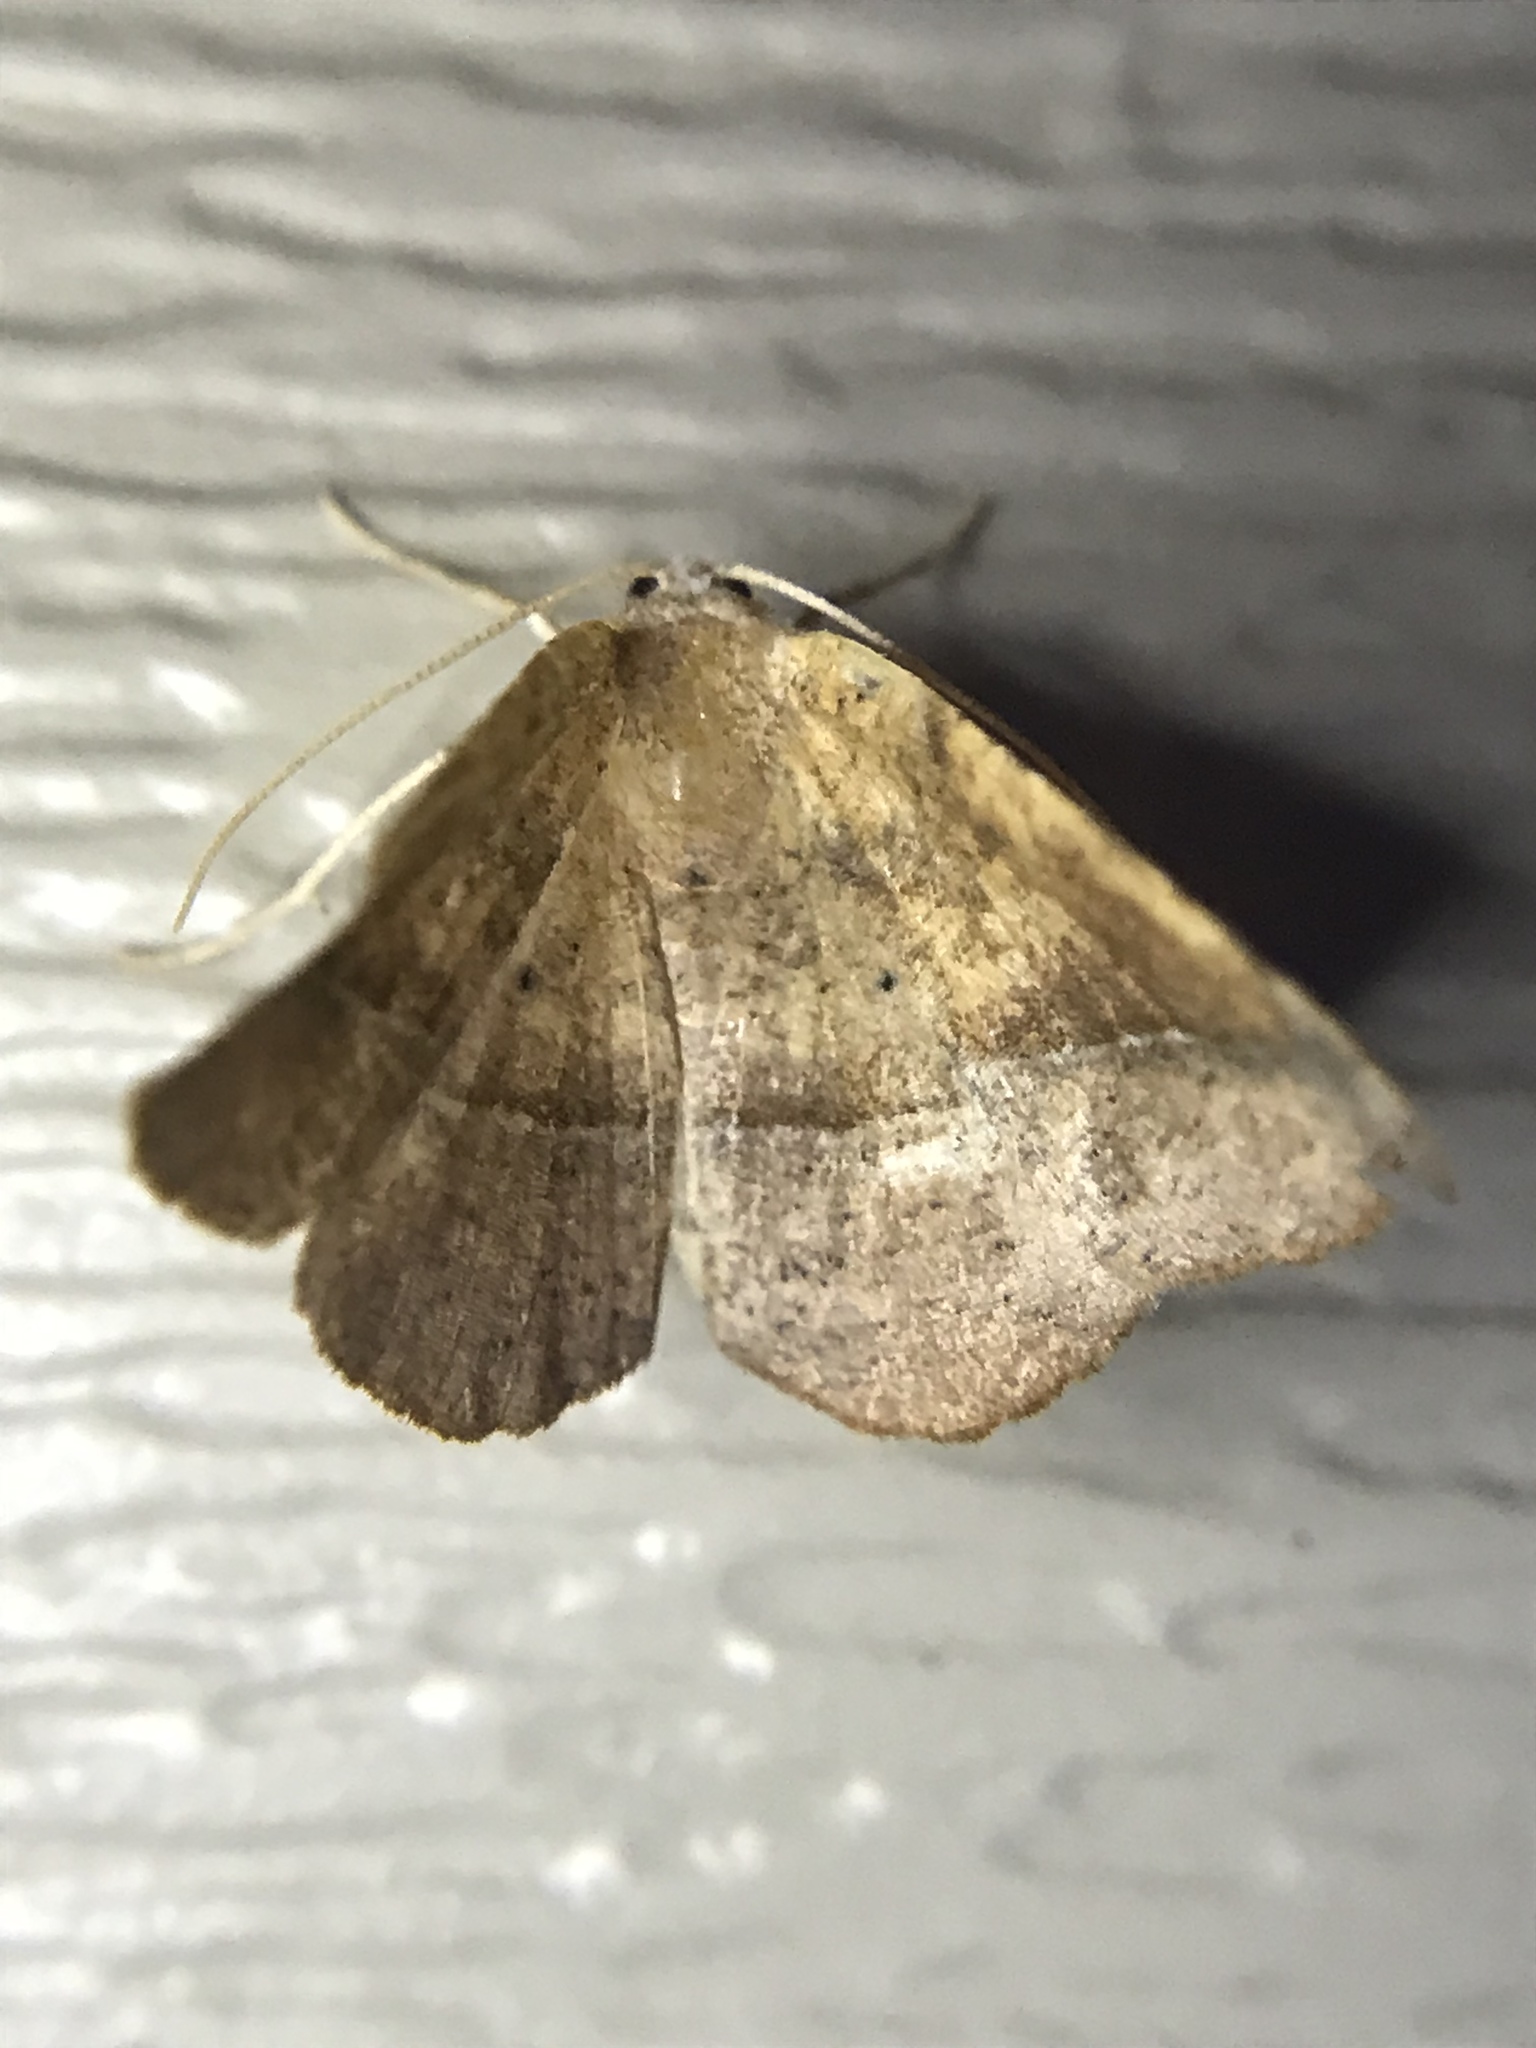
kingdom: Animalia
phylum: Arthropoda
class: Insecta
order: Lepidoptera
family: Geometridae
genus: Patalene
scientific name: Patalene olyzonaria
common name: Juniper geometer moth
